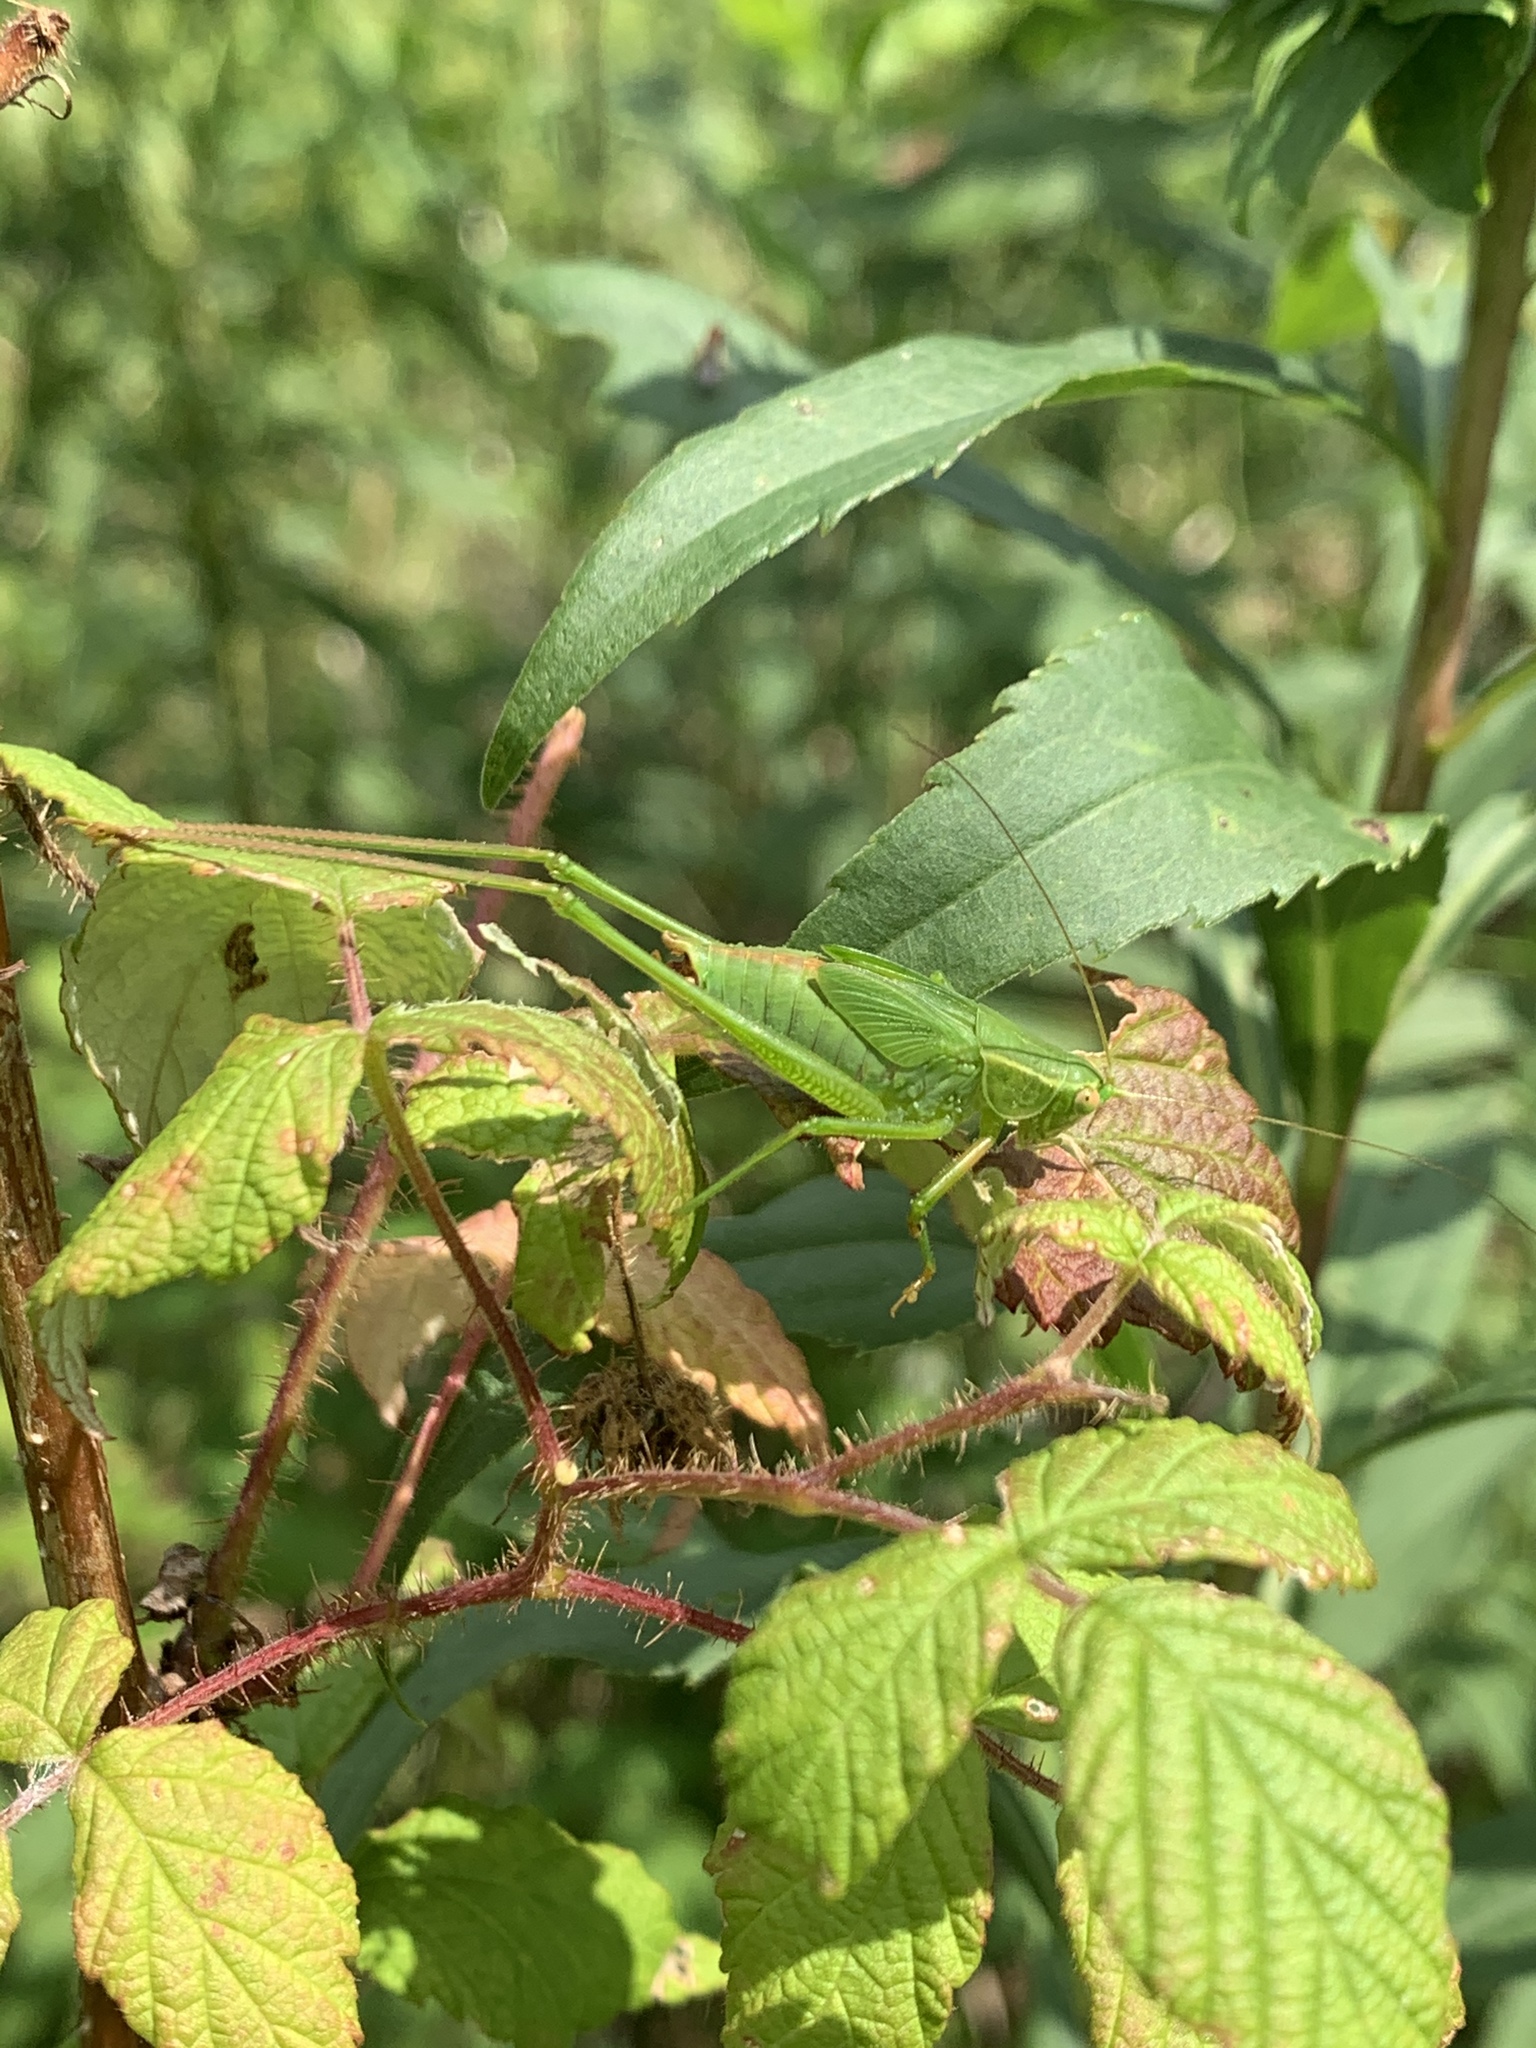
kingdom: Animalia
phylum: Arthropoda
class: Insecta
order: Orthoptera
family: Tettigoniidae
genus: Scudderia
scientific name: Scudderia
